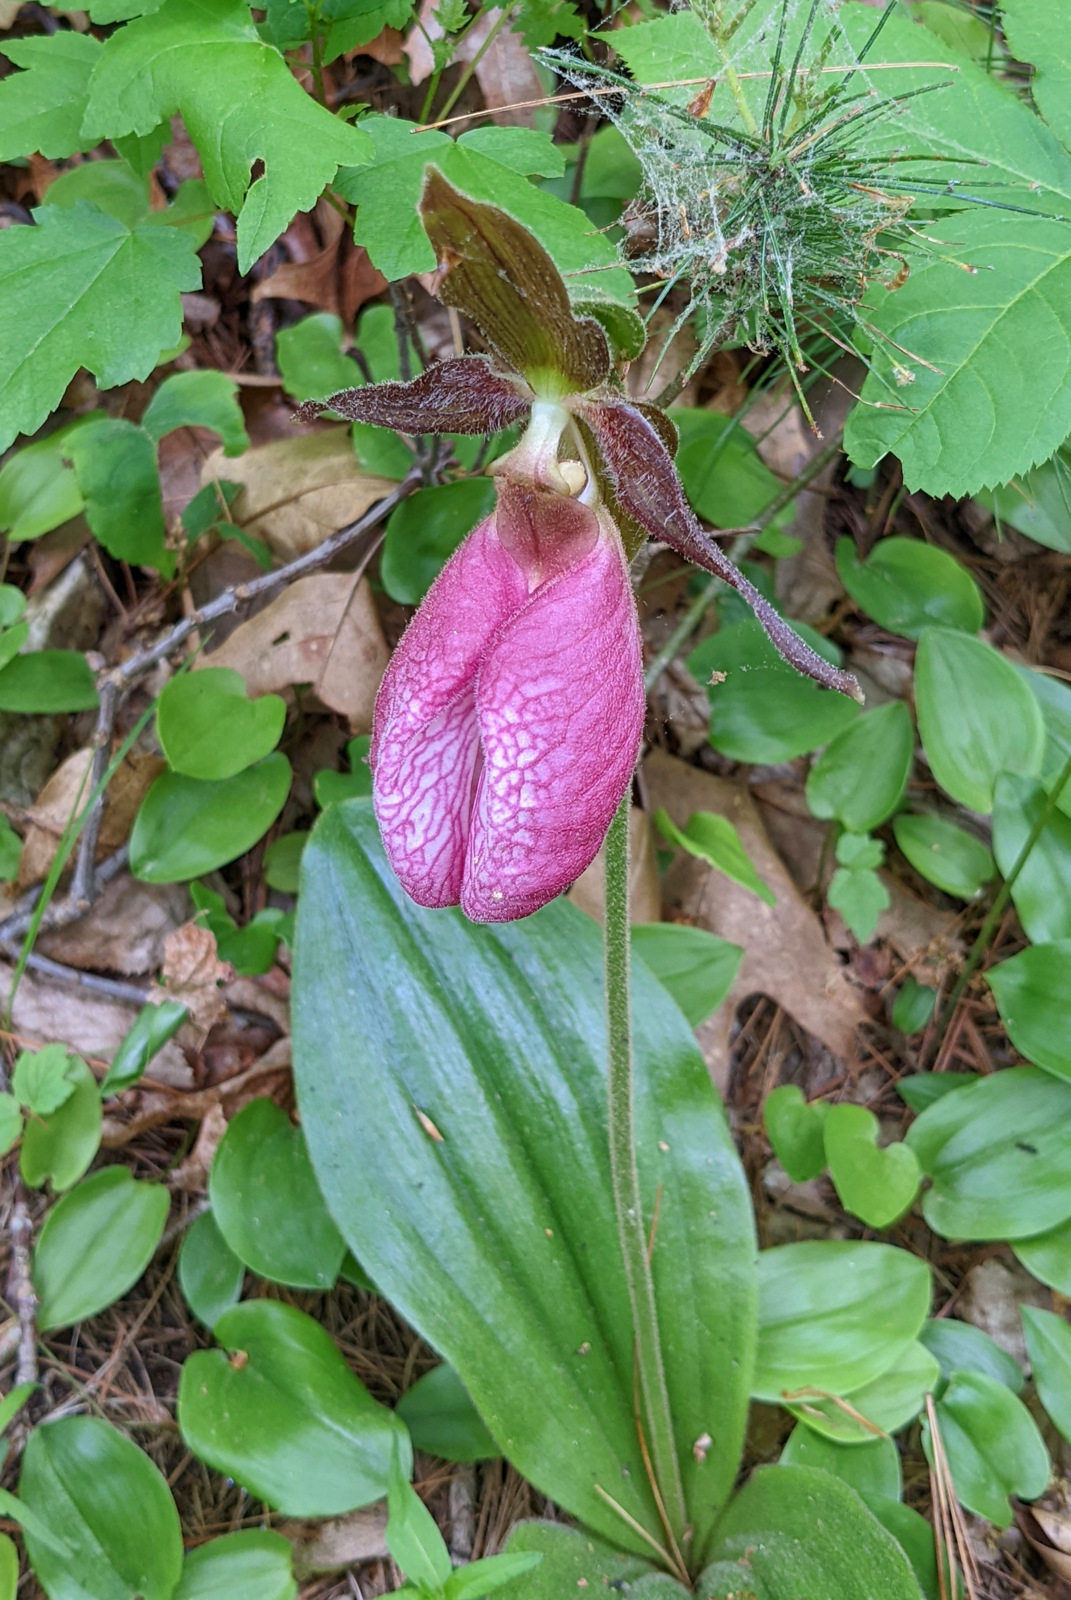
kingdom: Plantae
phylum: Tracheophyta
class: Liliopsida
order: Asparagales
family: Orchidaceae
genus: Cypripedium
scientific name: Cypripedium acaule
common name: Pink lady's-slipper
